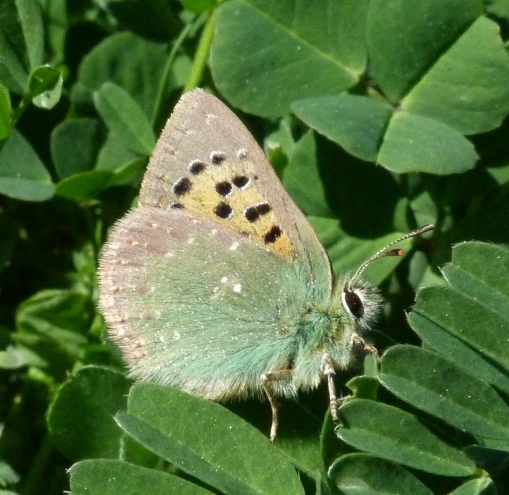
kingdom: Animalia
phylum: Arthropoda
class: Insecta
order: Lepidoptera
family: Lycaenidae
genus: Tomares
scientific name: Tomares ballus
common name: Provence hairstreak
